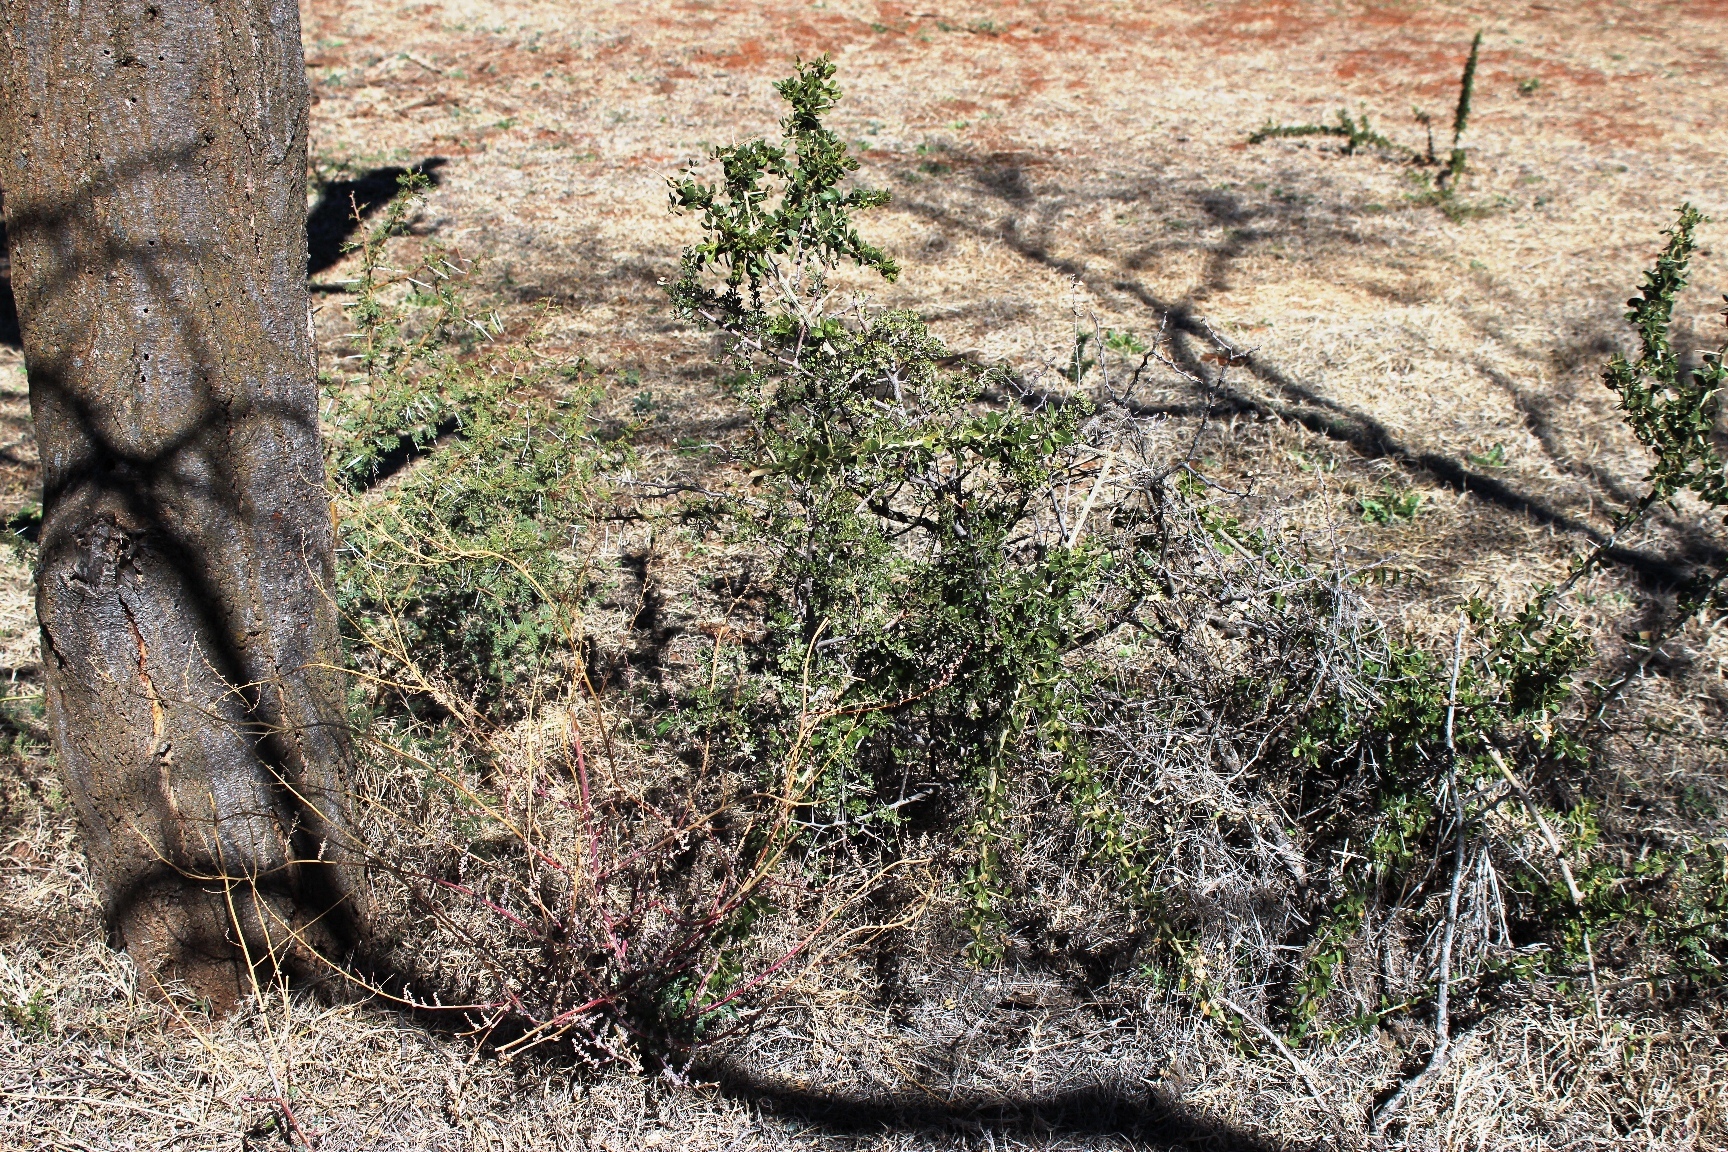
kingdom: Plantae
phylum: Tracheophyta
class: Magnoliopsida
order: Sapindales
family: Anacardiaceae
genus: Searsia
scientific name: Searsia burchellii
